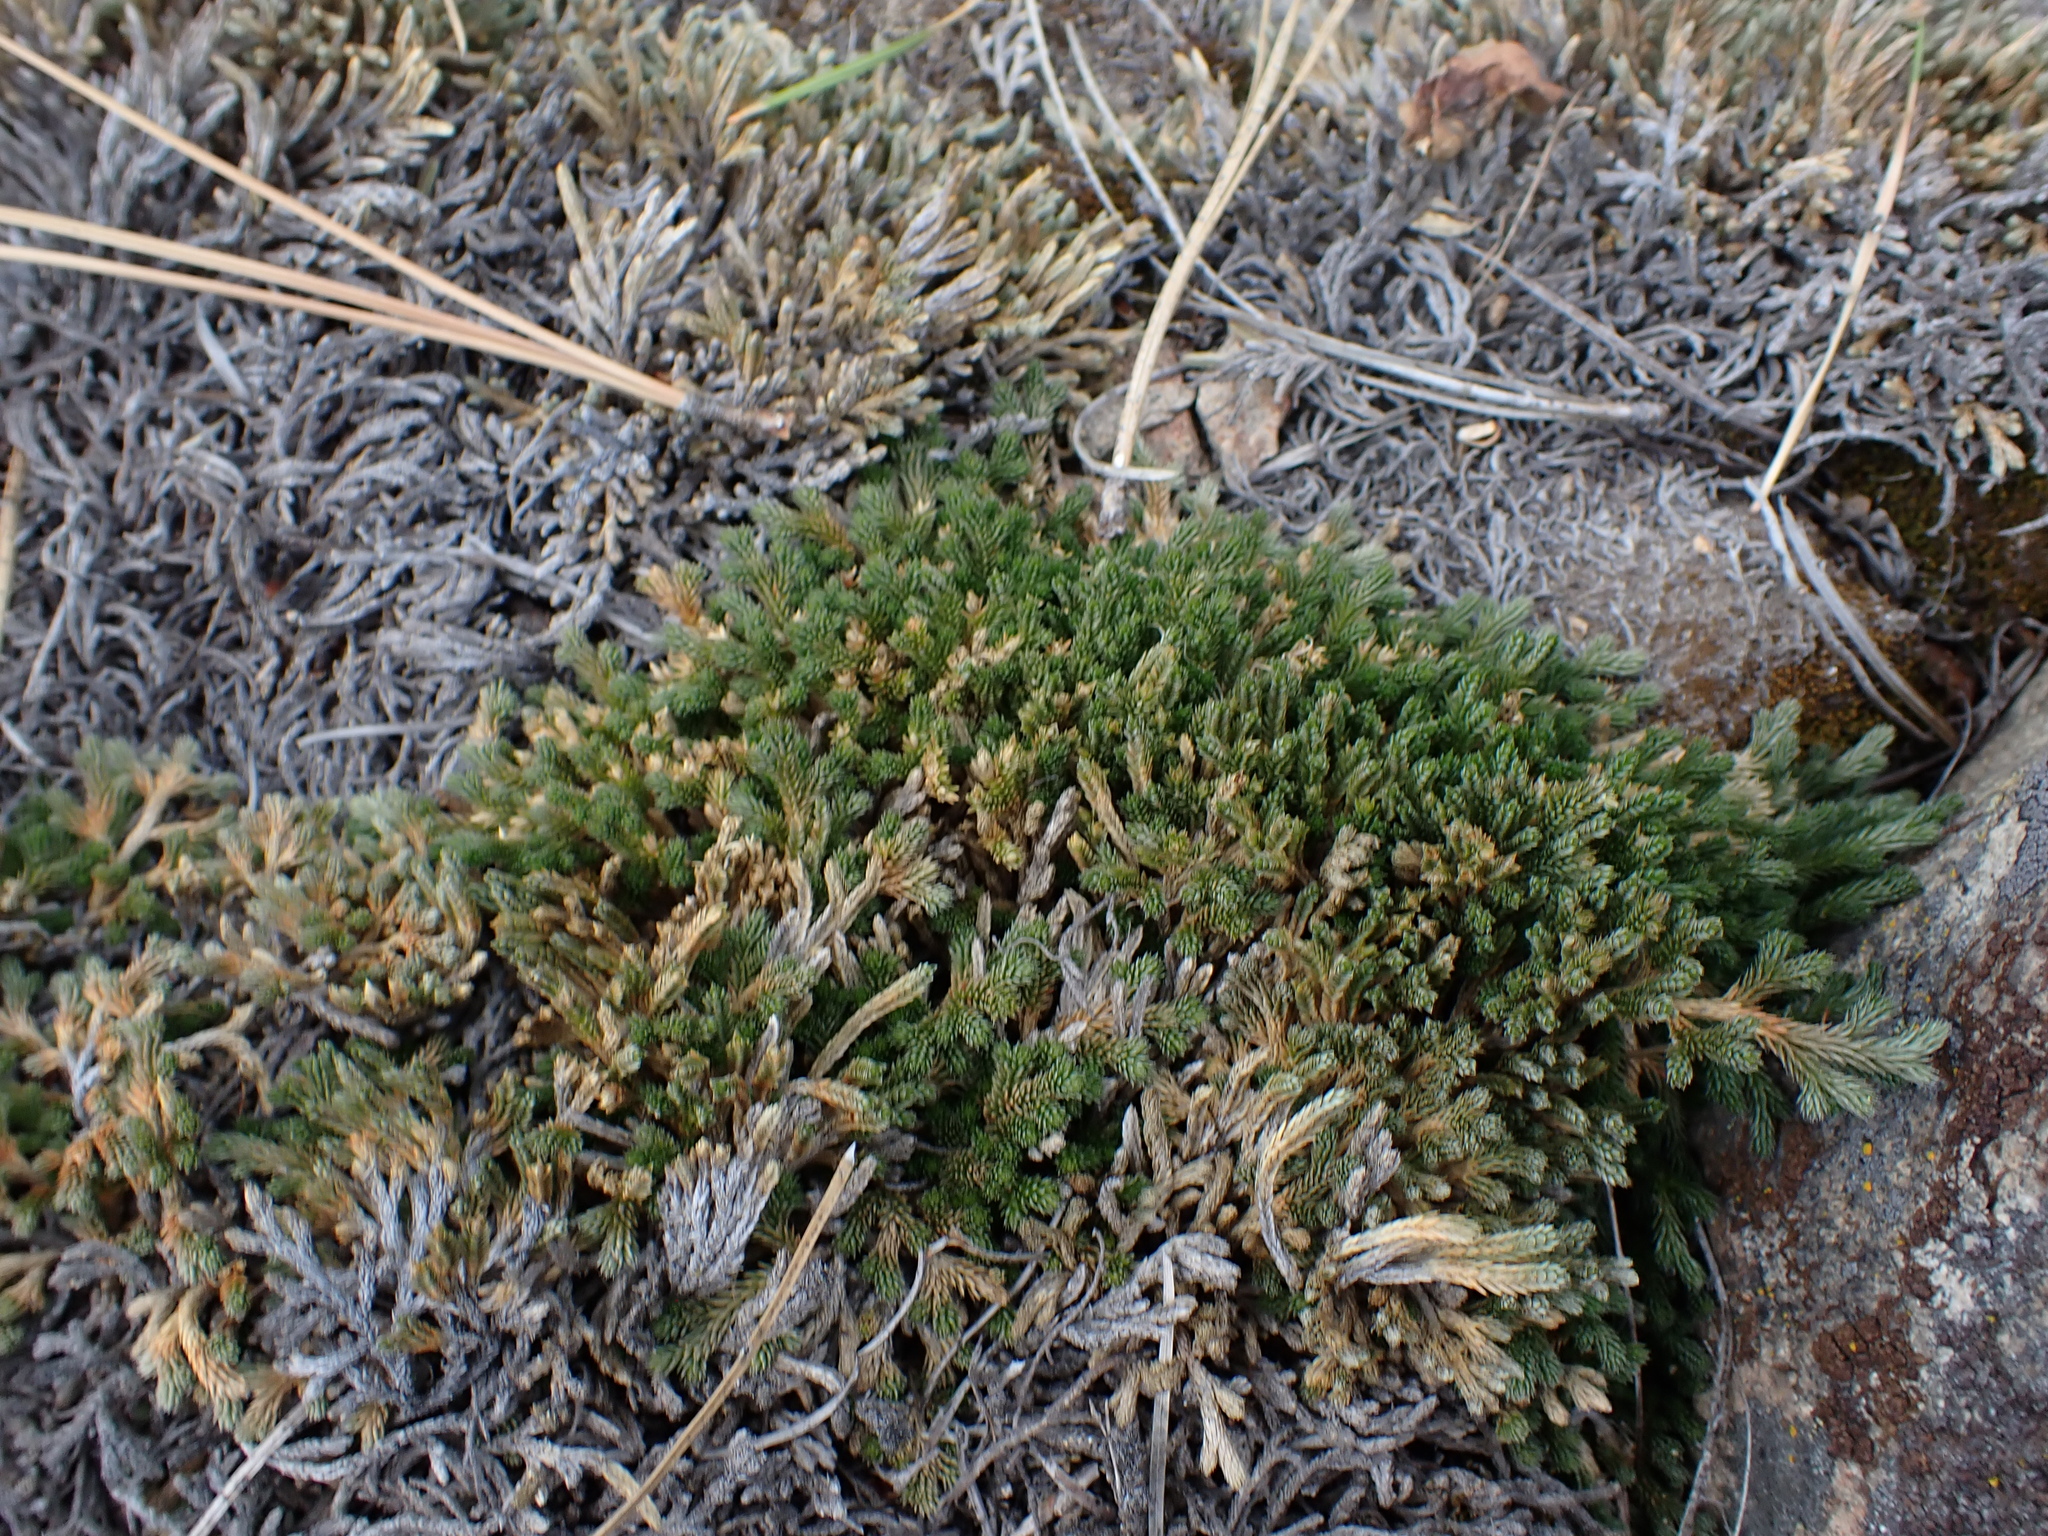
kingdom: Plantae
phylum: Tracheophyta
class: Lycopodiopsida
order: Selaginellales
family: Selaginellaceae
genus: Selaginella
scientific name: Selaginella wallacei
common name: Wallace's selaginella
